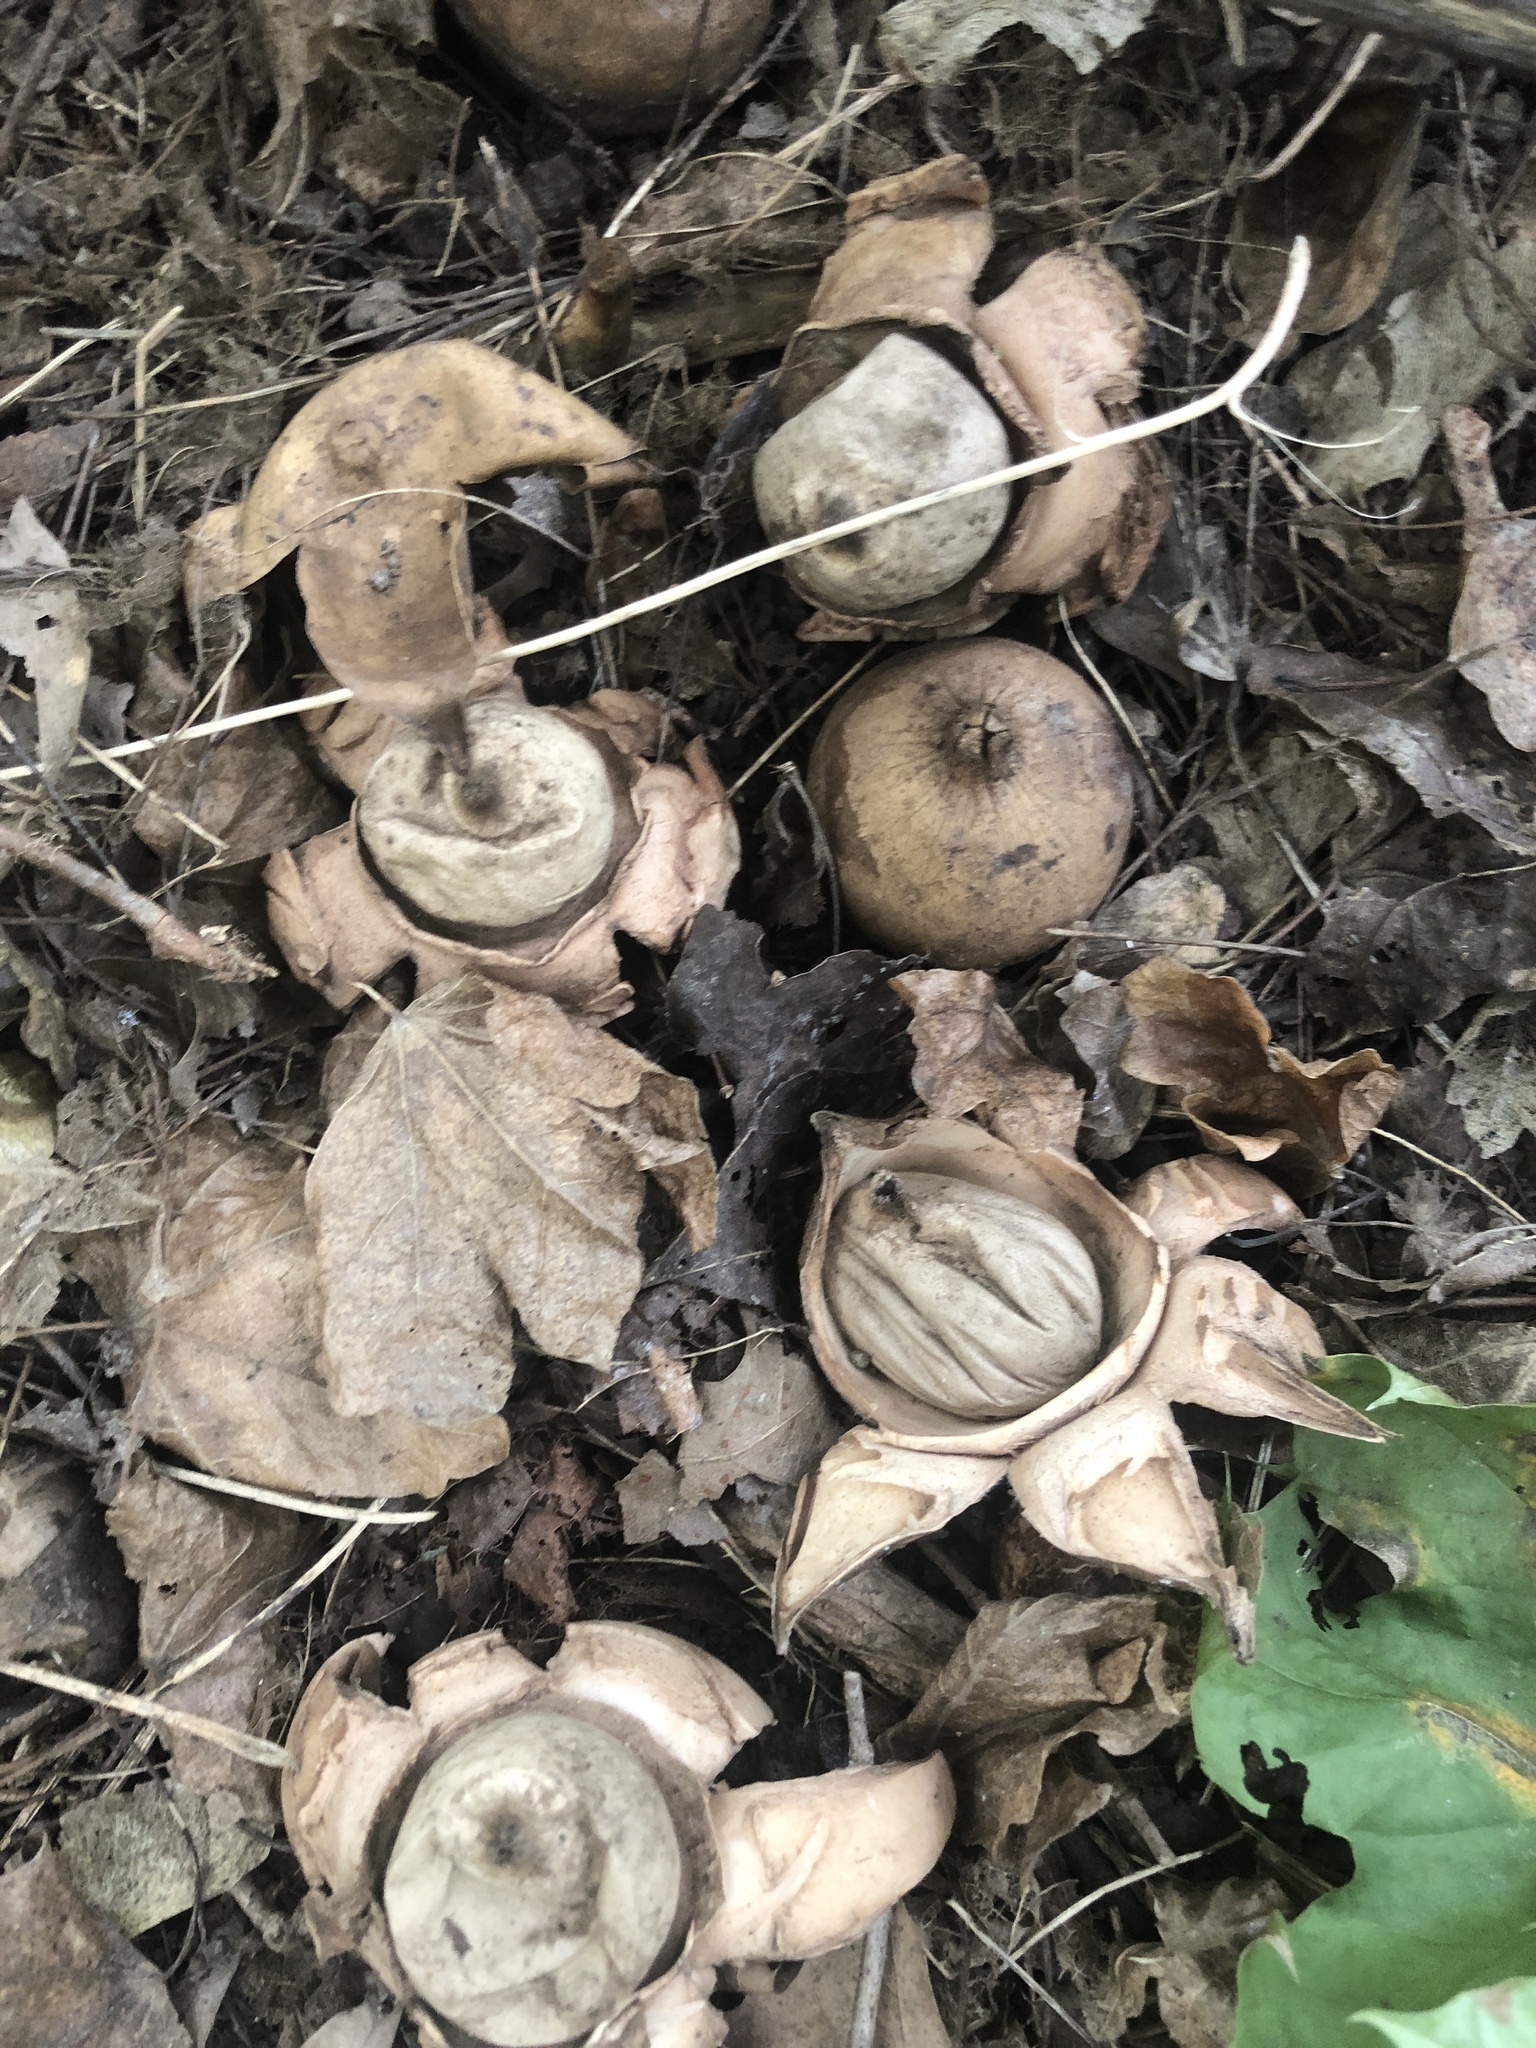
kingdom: Fungi
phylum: Basidiomycota
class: Agaricomycetes
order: Geastrales
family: Geastraceae
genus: Geastrum
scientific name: Geastrum triplex
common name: Collared earthstar
